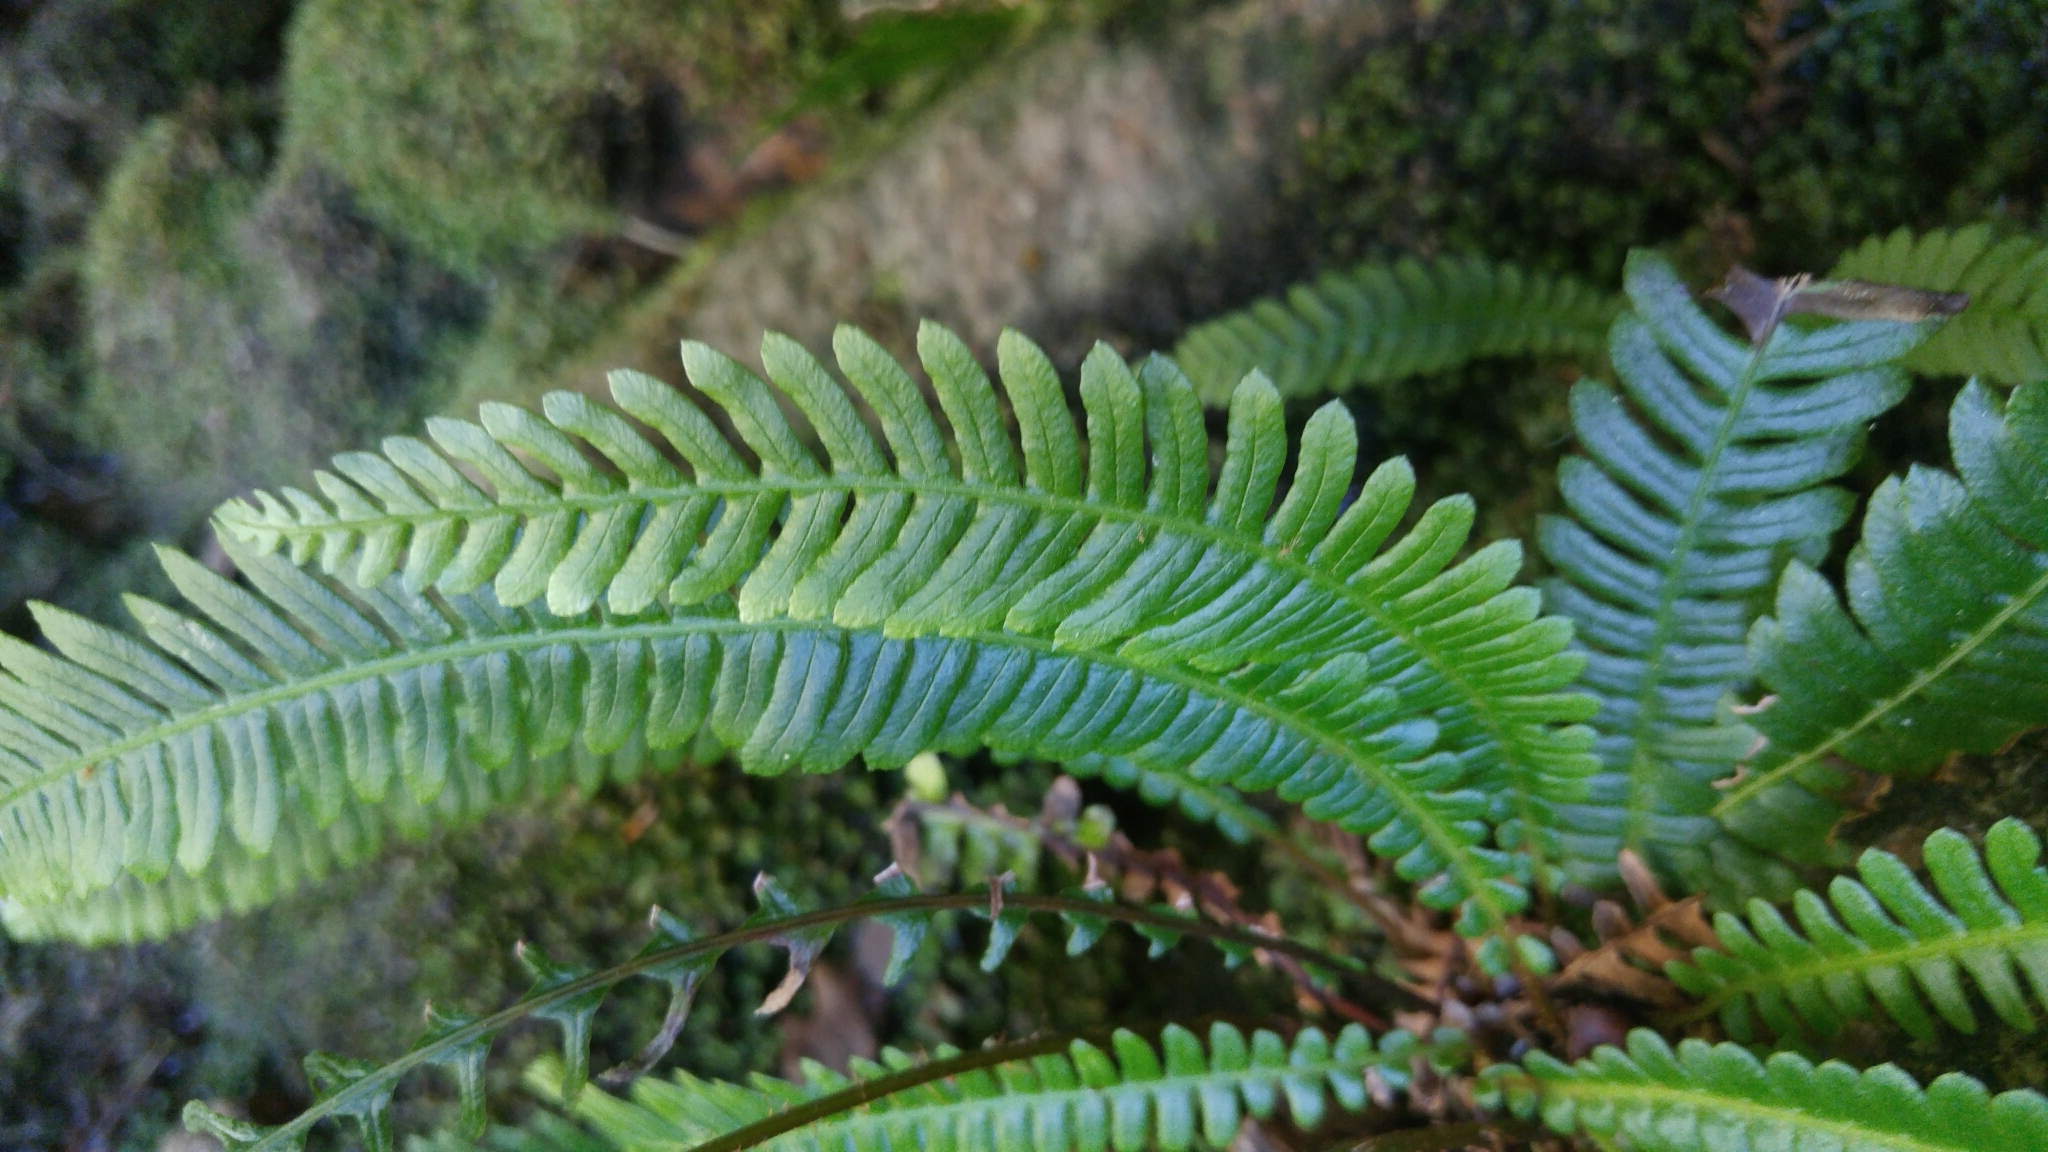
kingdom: Plantae
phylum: Tracheophyta
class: Polypodiopsida
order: Polypodiales
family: Blechnaceae
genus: Struthiopteris
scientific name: Struthiopteris spicant
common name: Deer fern
